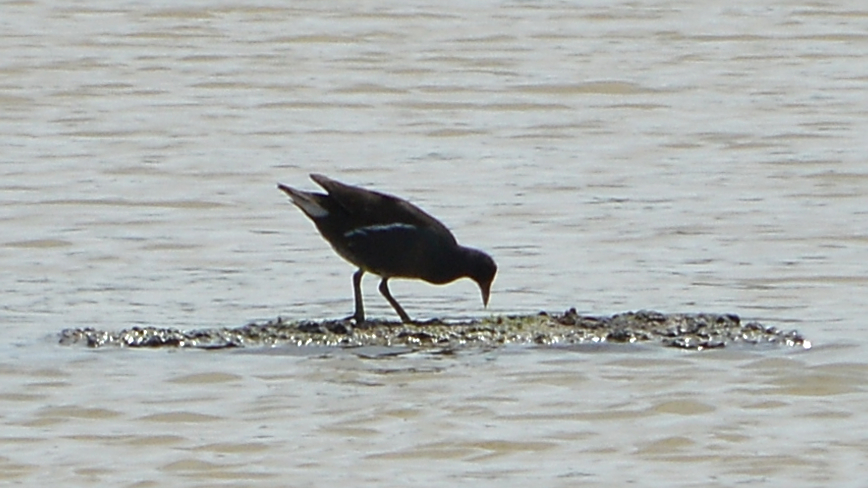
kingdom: Animalia
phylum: Chordata
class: Aves
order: Gruiformes
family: Rallidae
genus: Gallinula
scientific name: Gallinula chloropus
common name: Common moorhen
